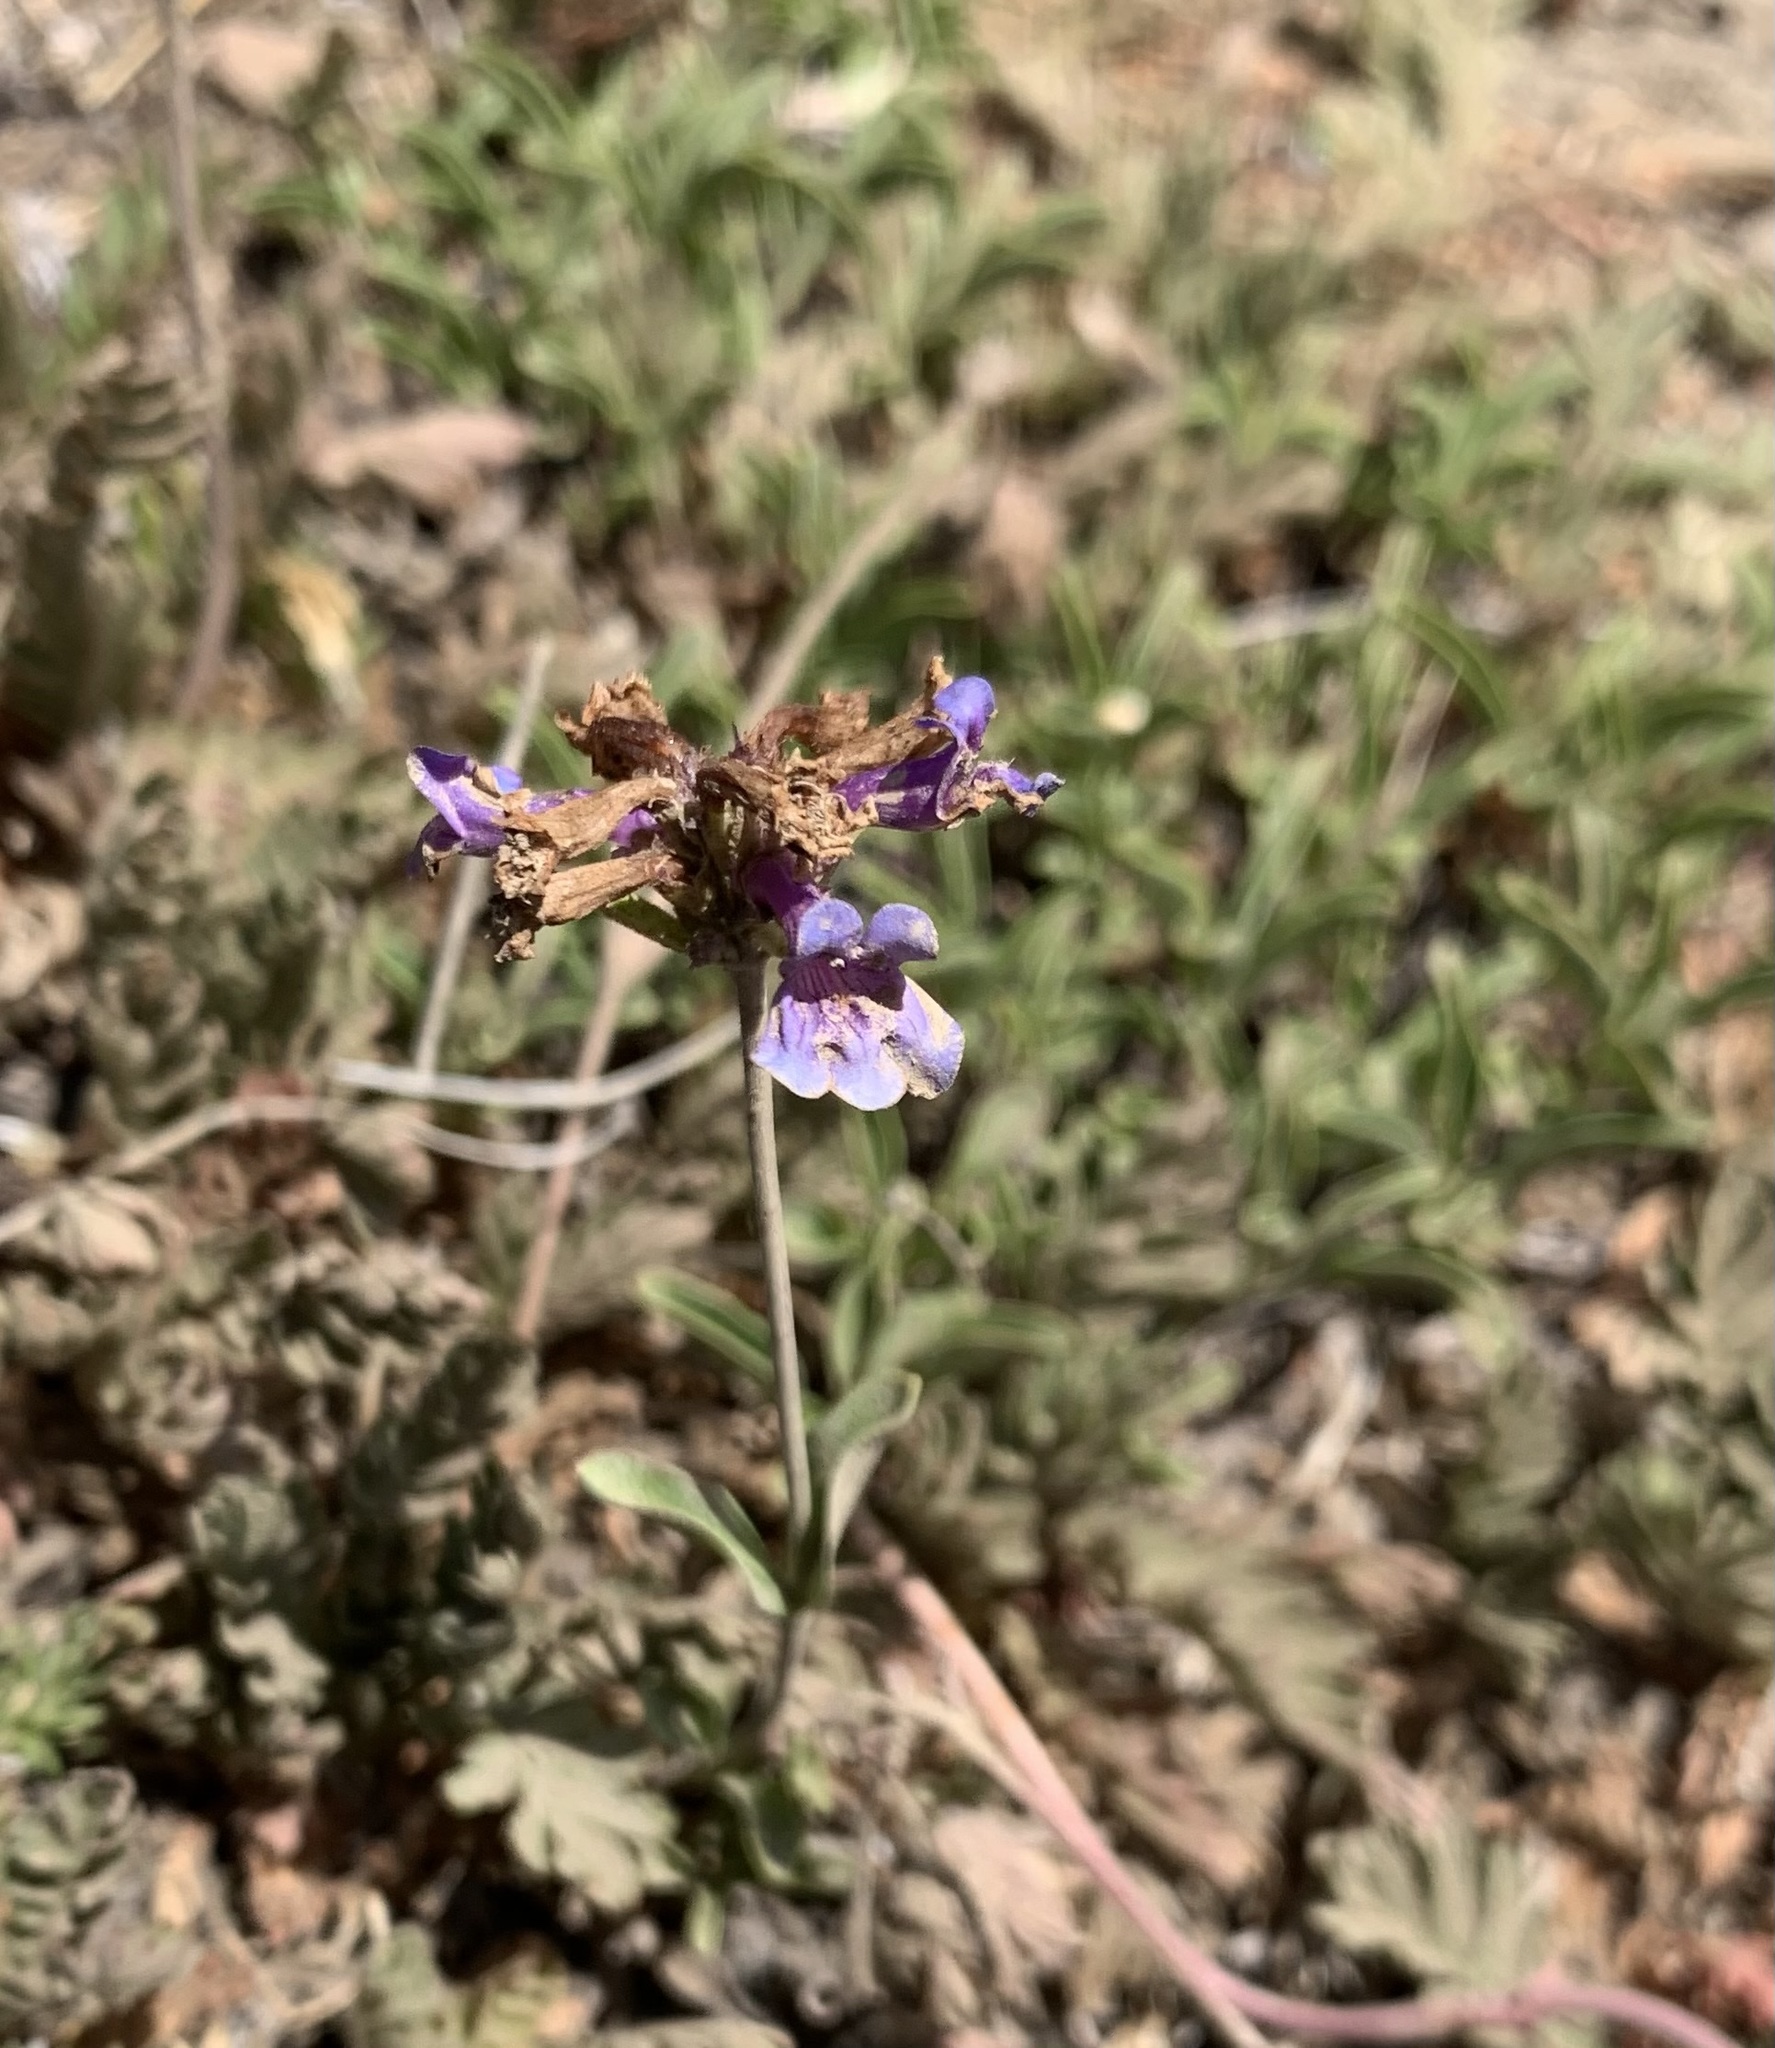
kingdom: Plantae
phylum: Tracheophyta
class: Magnoliopsida
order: Lamiales
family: Plantaginaceae
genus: Penstemon
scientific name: Penstemon procerus
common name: Small-flower penstemon
